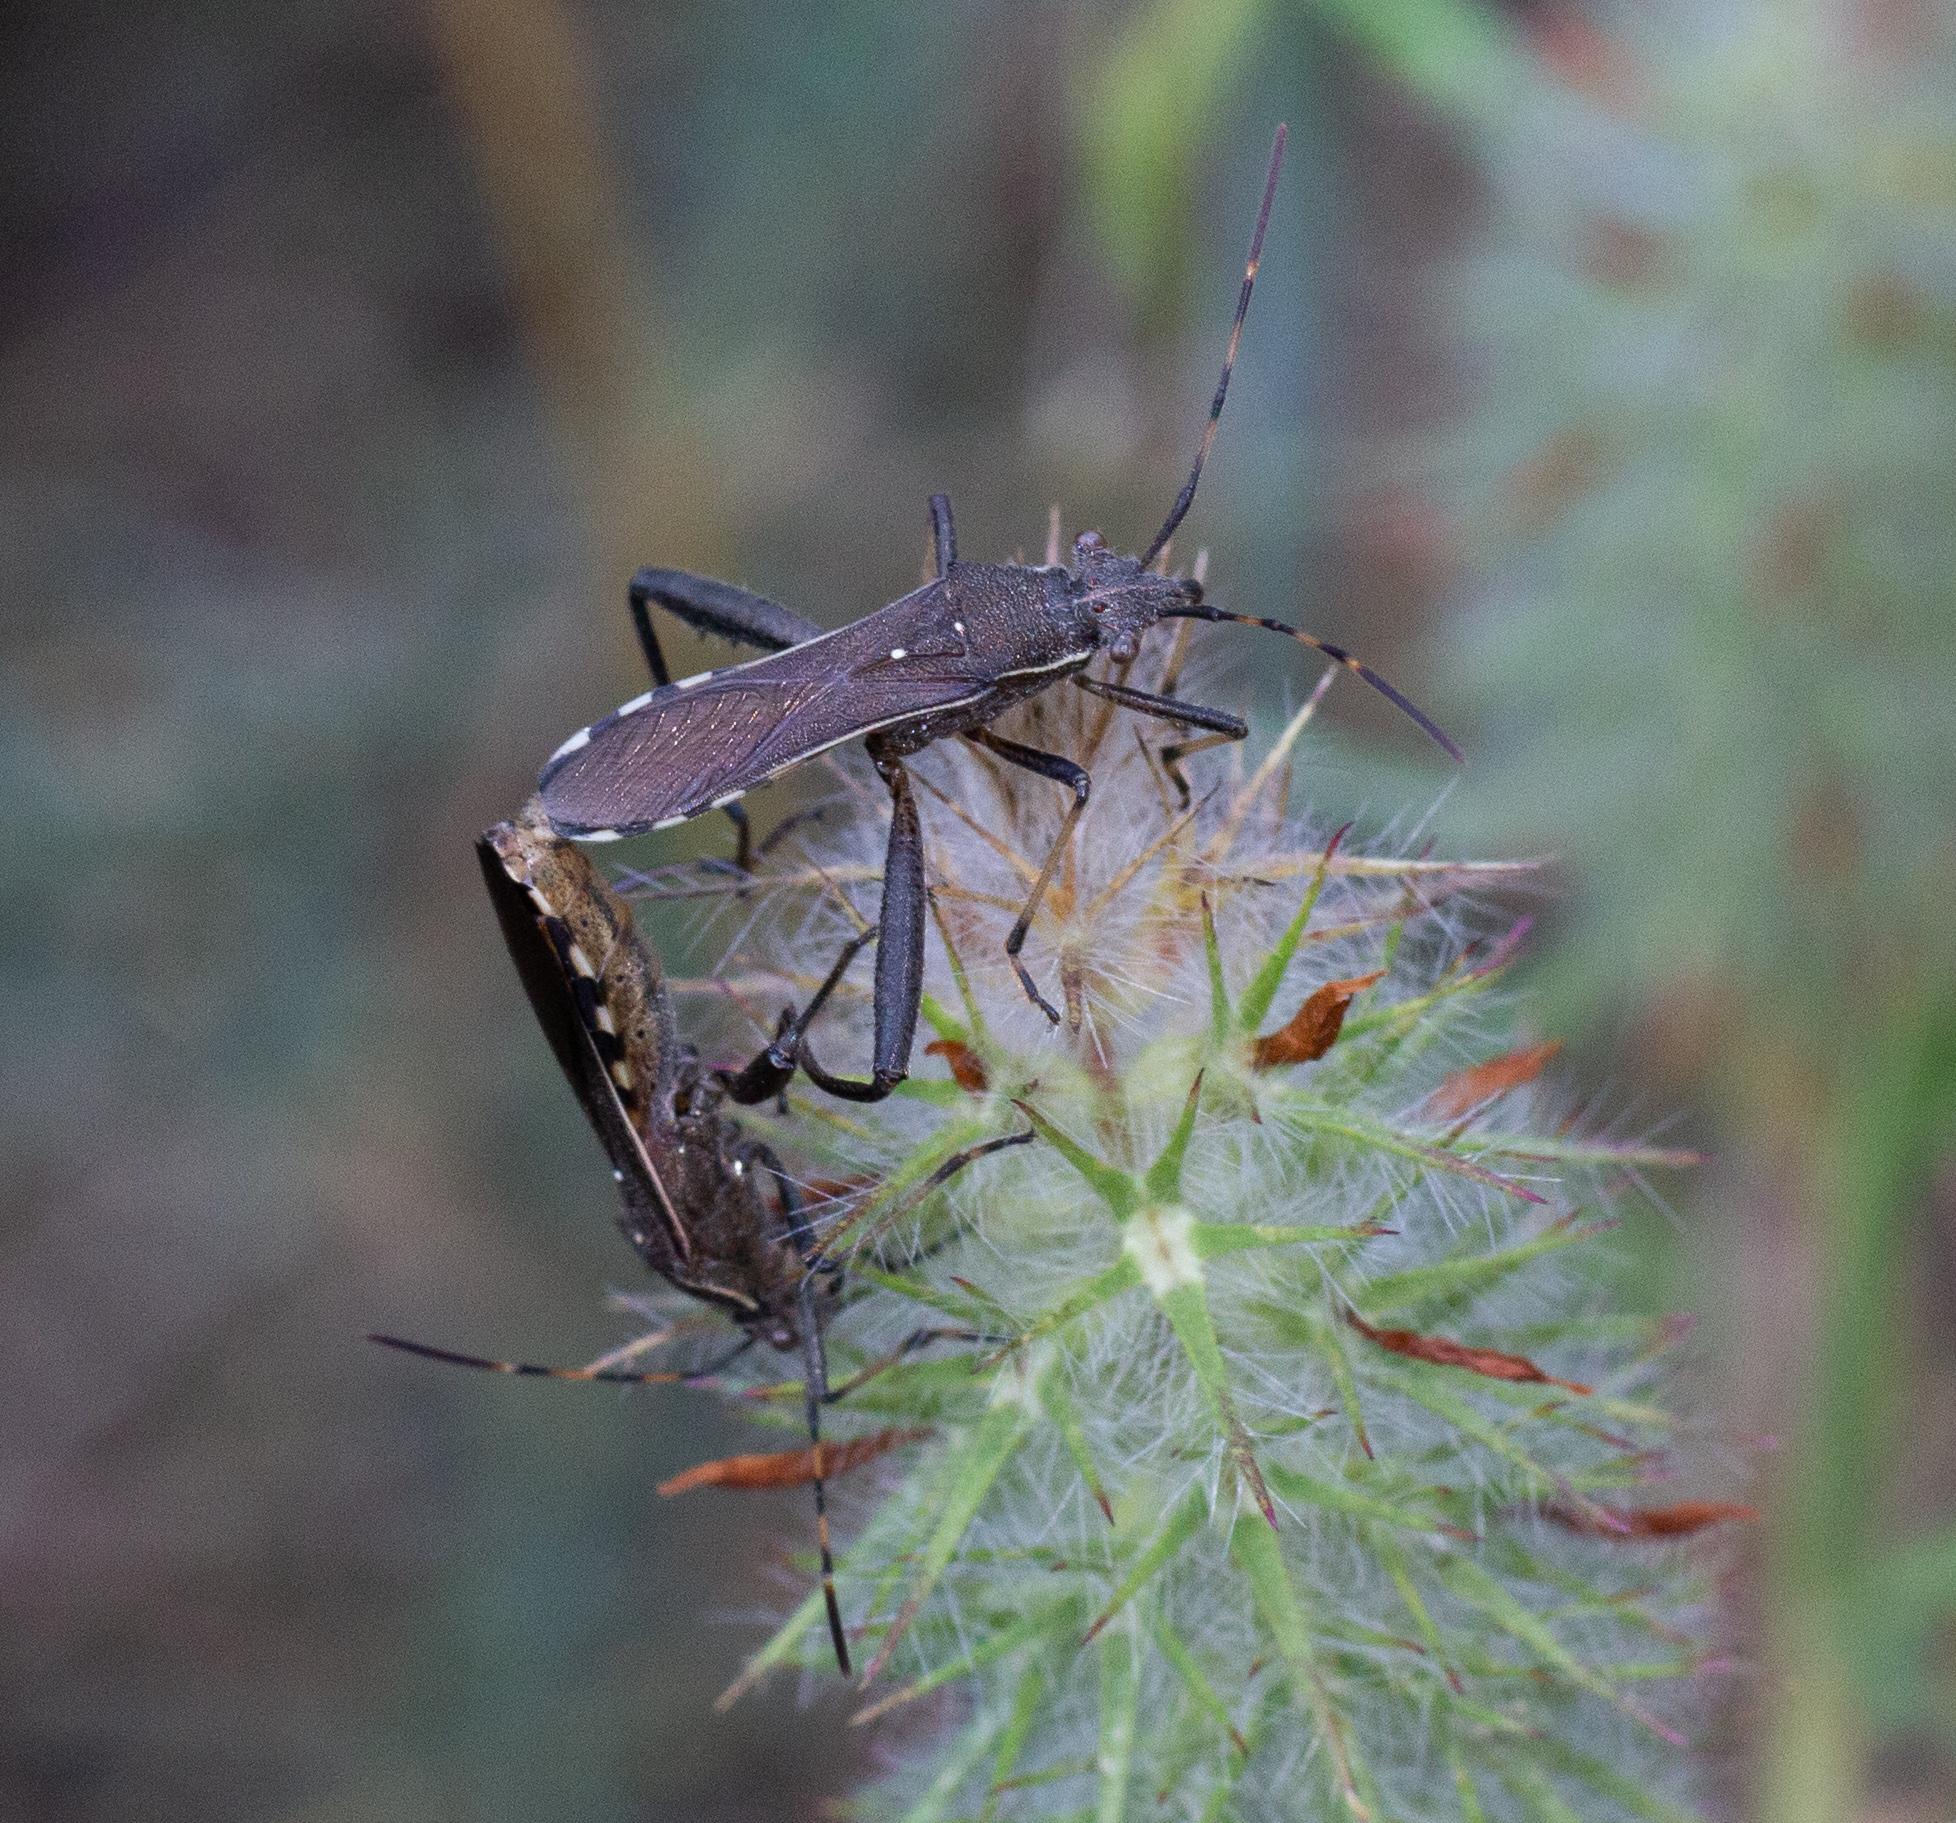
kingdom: Animalia
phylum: Arthropoda
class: Insecta
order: Hemiptera
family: Alydidae
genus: Camptopus
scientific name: Camptopus lateralis
